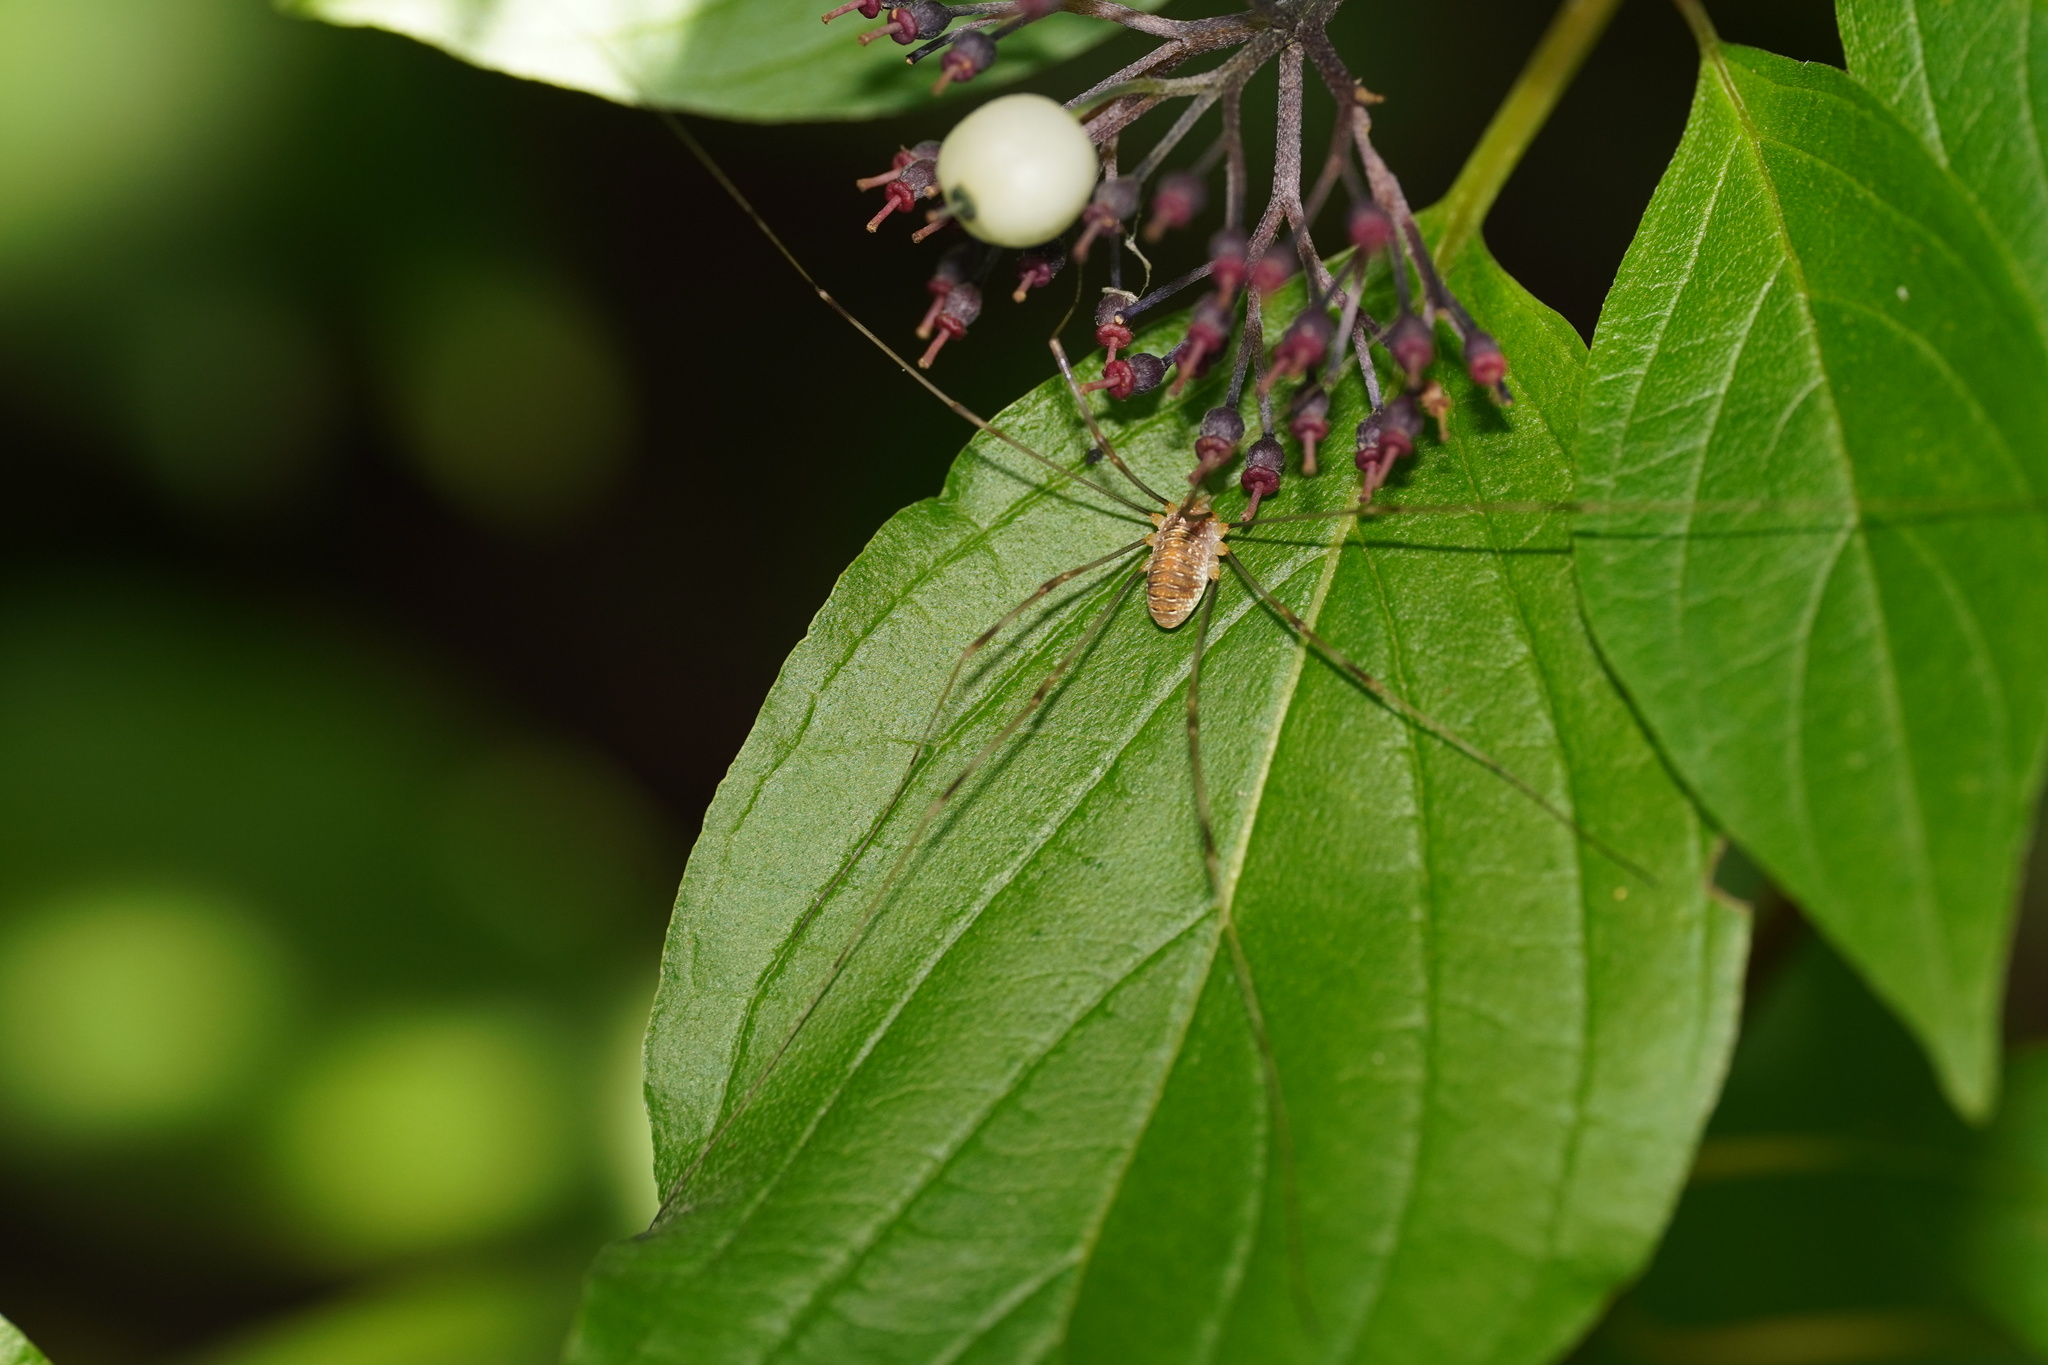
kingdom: Animalia
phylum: Arthropoda
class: Arachnida
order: Opiliones
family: Phalangiidae
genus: Opilio
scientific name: Opilio canestrinii
